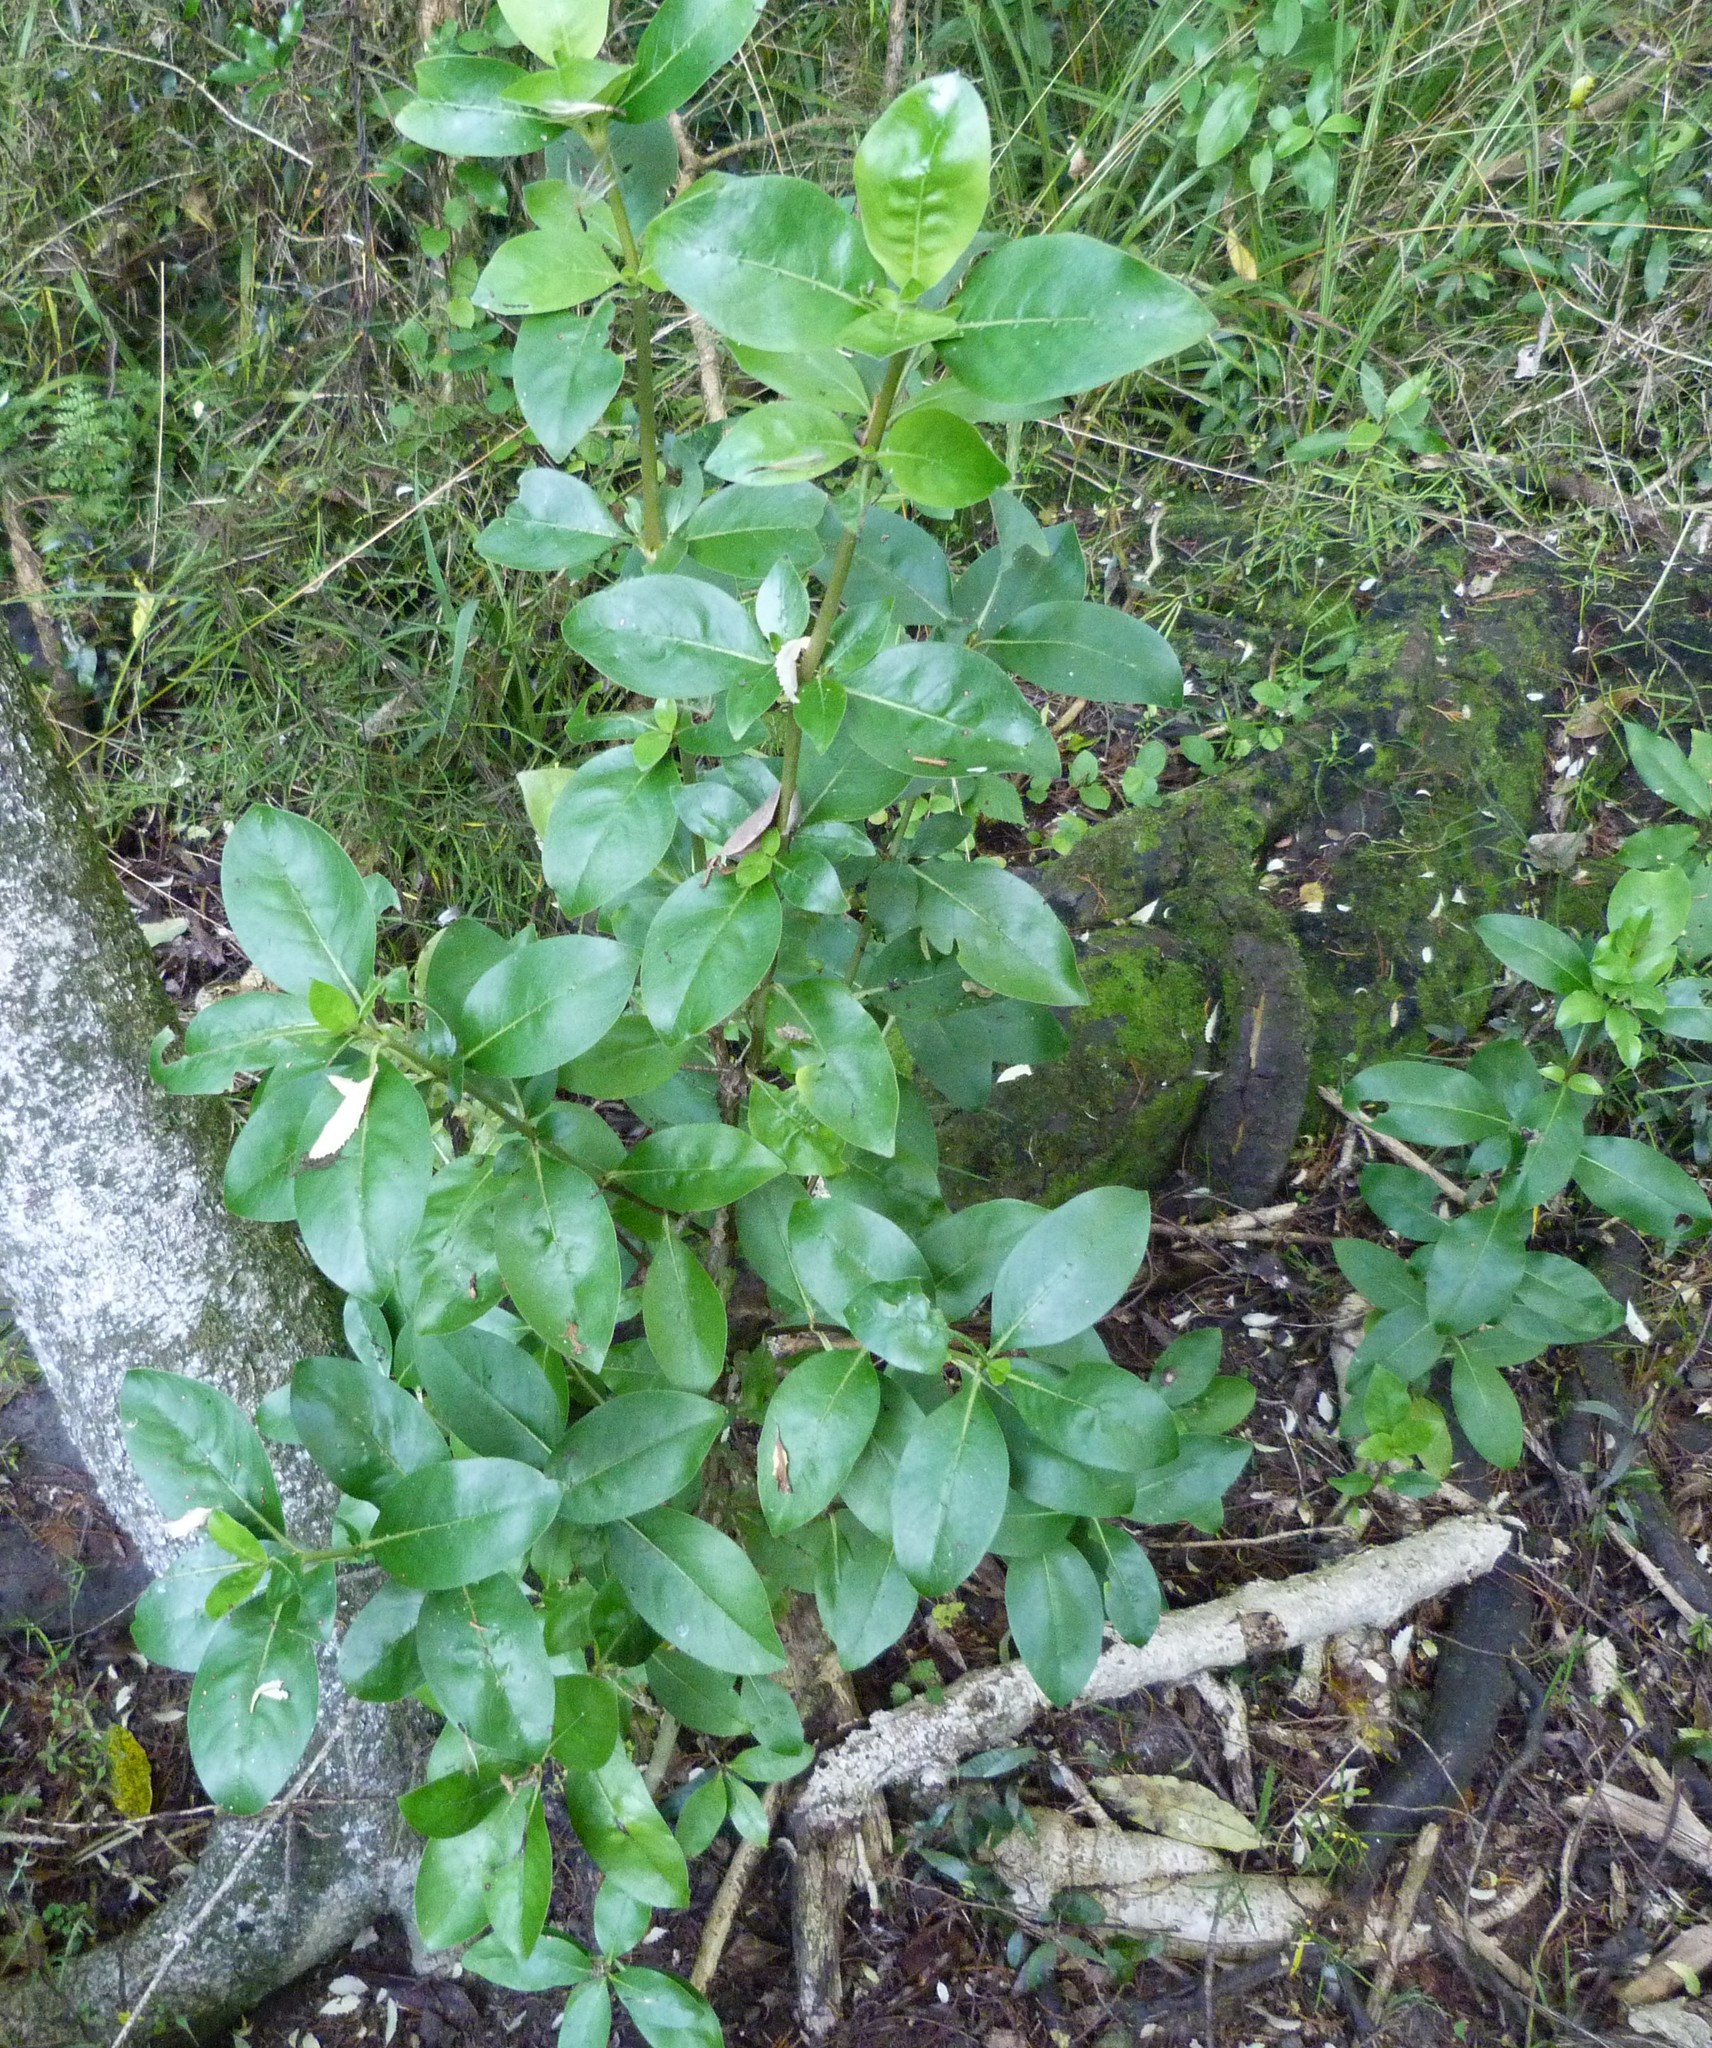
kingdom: Plantae
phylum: Tracheophyta
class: Magnoliopsida
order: Gentianales
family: Rubiaceae
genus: Coprosma
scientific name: Coprosma robusta
